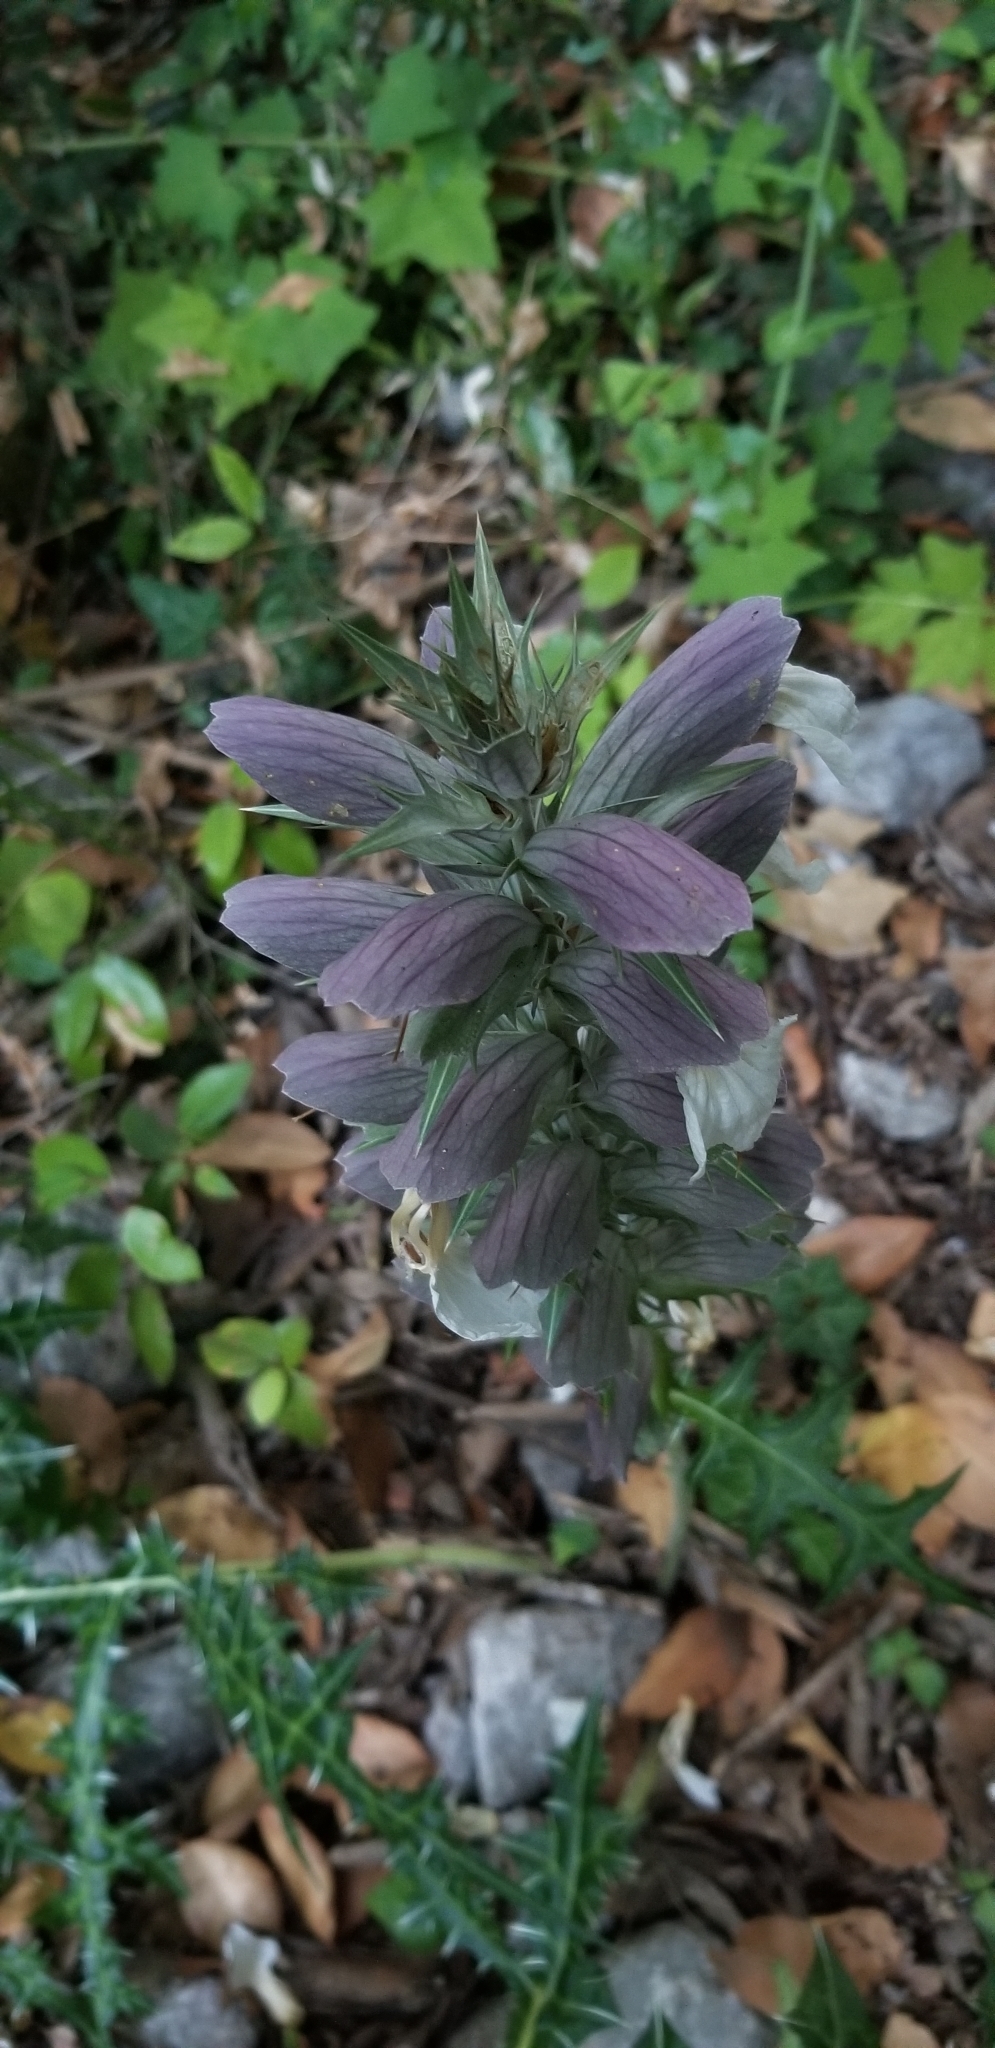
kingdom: Plantae
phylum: Tracheophyta
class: Magnoliopsida
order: Lamiales
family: Acanthaceae
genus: Acanthus
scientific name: Acanthus mollis
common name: Bear's-breech
